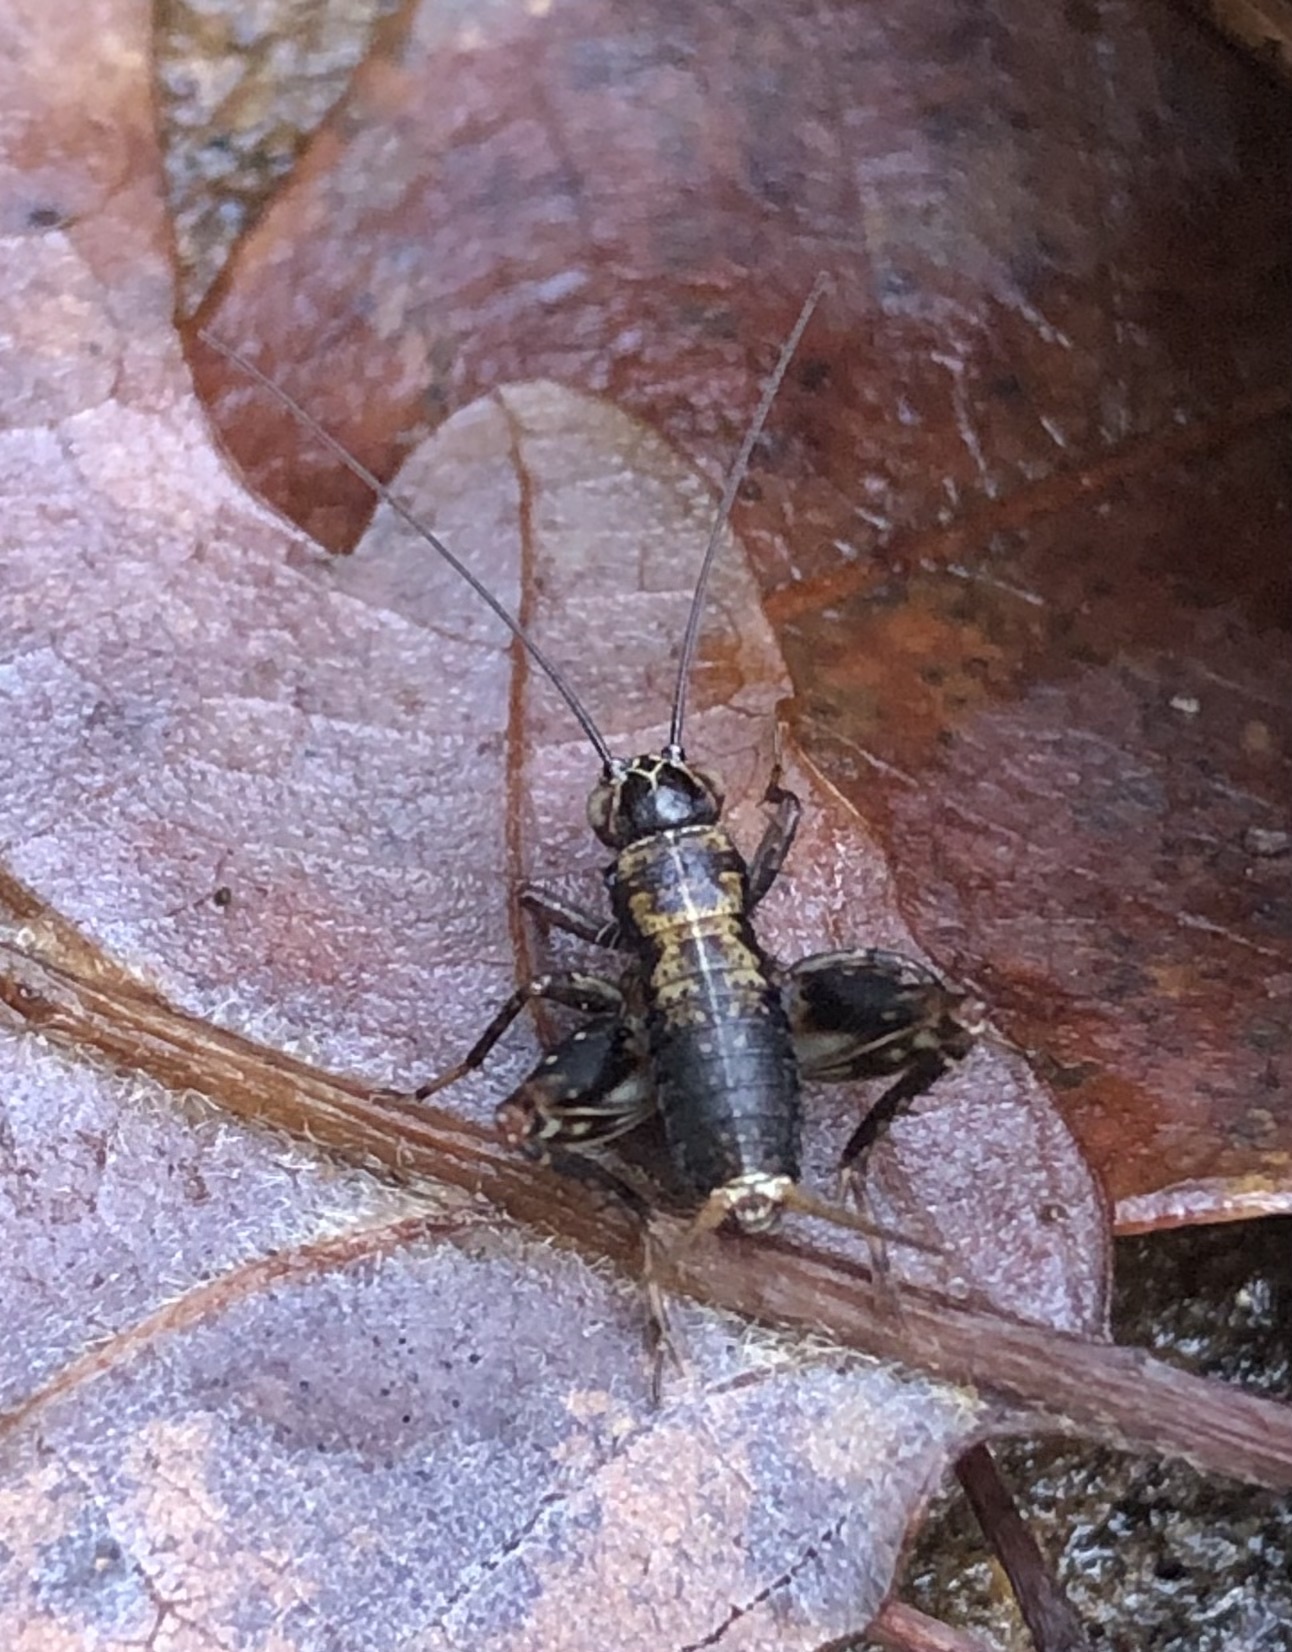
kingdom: Animalia
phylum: Arthropoda
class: Insecta
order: Orthoptera
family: Trigonidiidae
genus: Nemobius
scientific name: Nemobius sylvestris
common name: Wood-cricket
